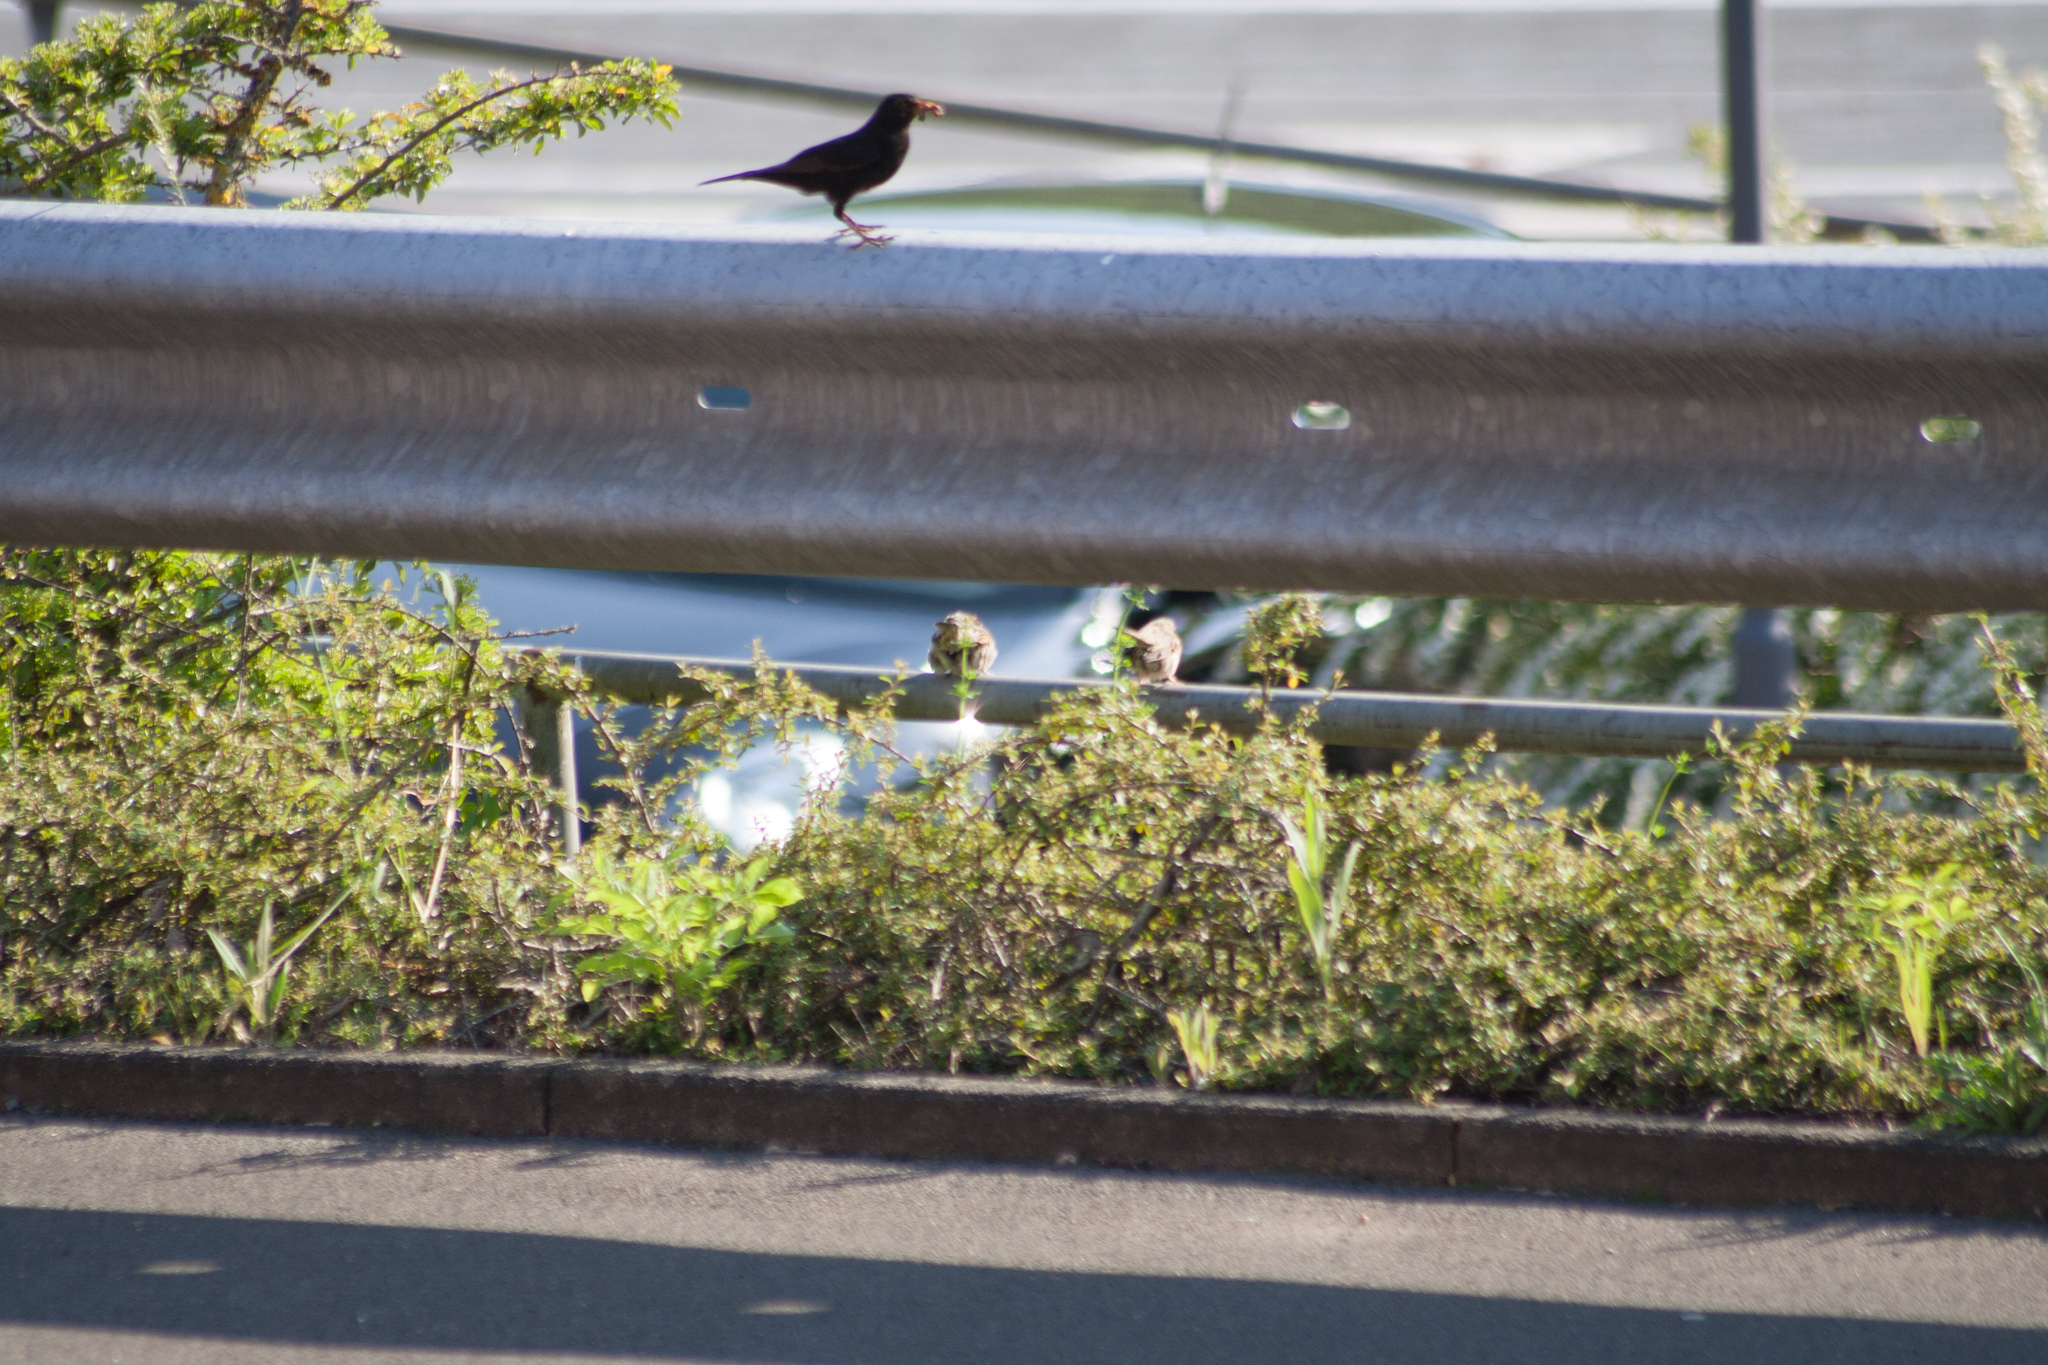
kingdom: Animalia
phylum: Chordata
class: Aves
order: Passeriformes
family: Turdidae
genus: Turdus
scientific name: Turdus merula
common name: Common blackbird
